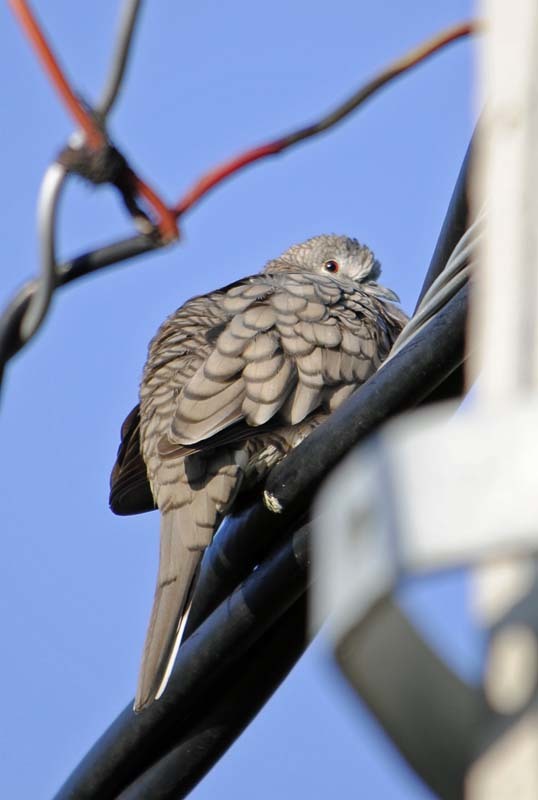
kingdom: Animalia
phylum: Chordata
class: Aves
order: Columbiformes
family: Columbidae
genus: Columbina
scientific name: Columbina inca
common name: Inca dove
